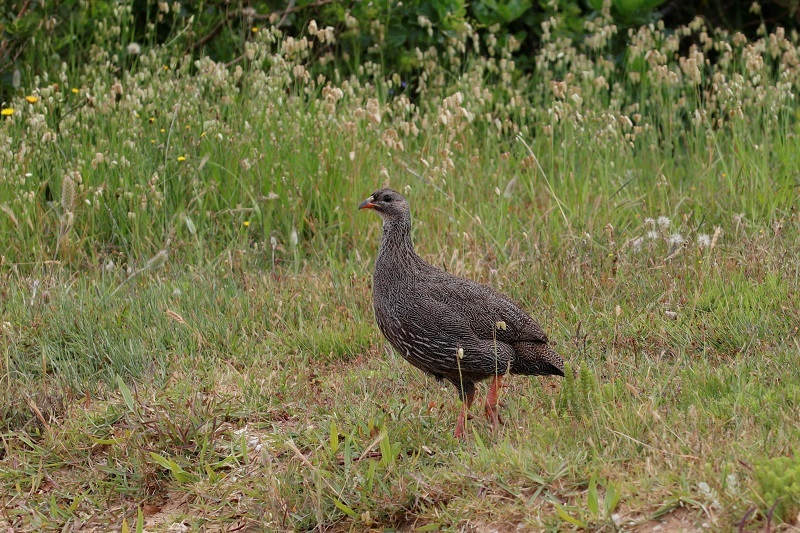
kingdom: Animalia
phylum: Chordata
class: Aves
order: Galliformes
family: Phasianidae
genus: Pternistis
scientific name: Pternistis capensis
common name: Cape spurfowl
